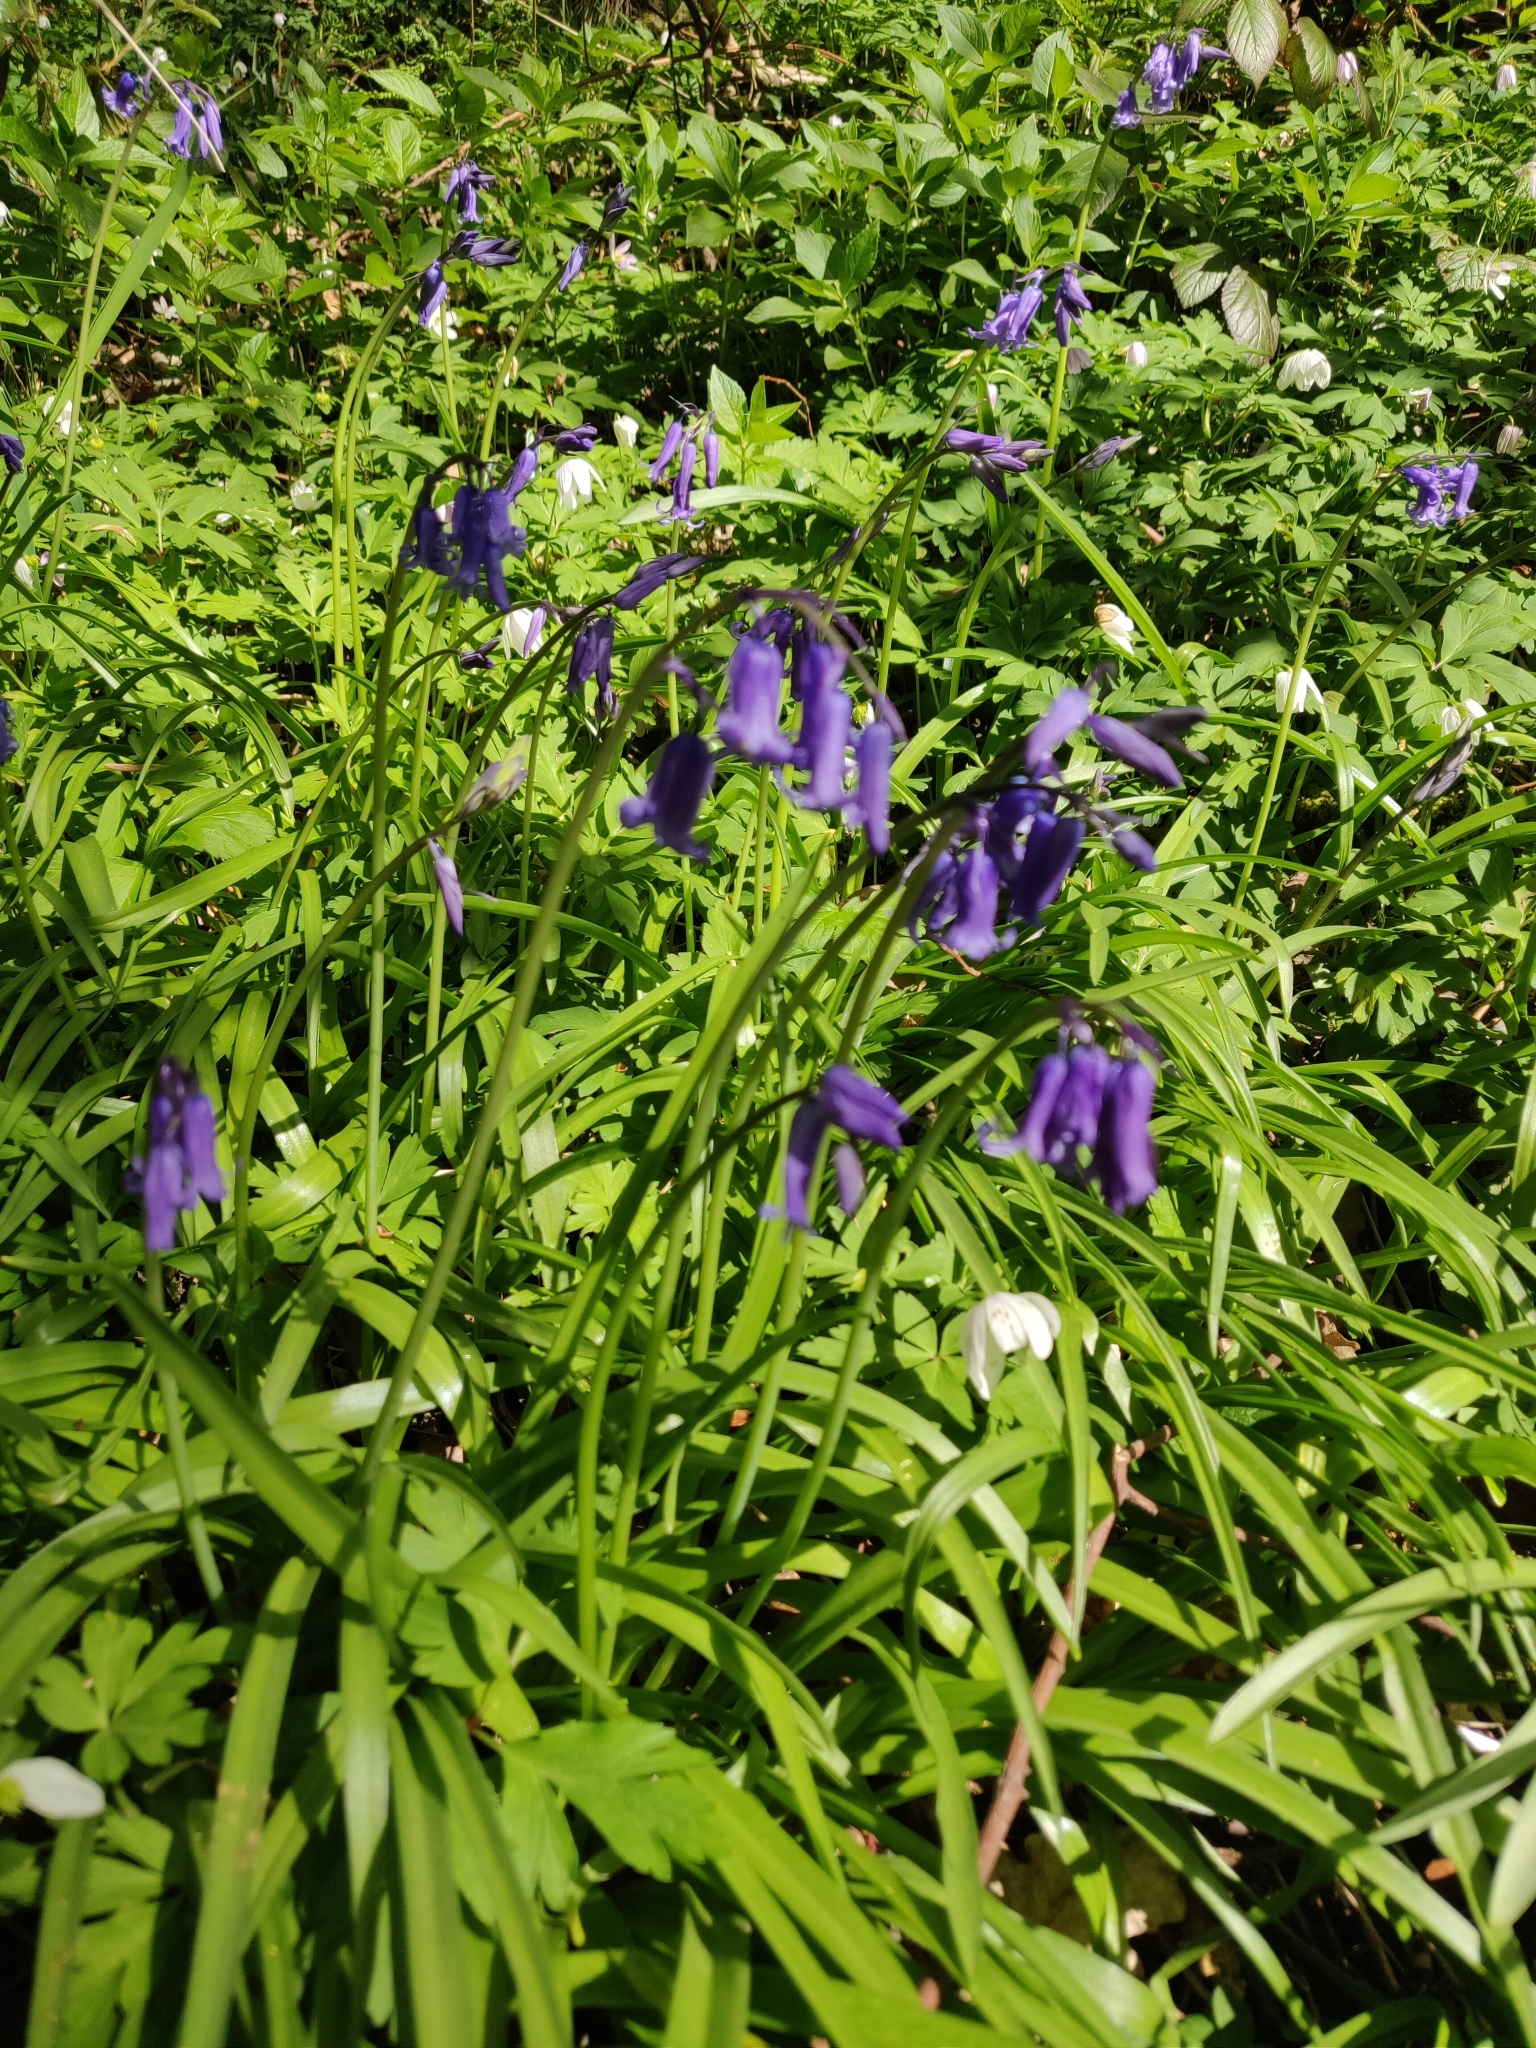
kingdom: Plantae
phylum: Tracheophyta
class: Liliopsida
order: Asparagales
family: Asparagaceae
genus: Hyacinthoides
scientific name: Hyacinthoides non-scripta
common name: Bluebell
